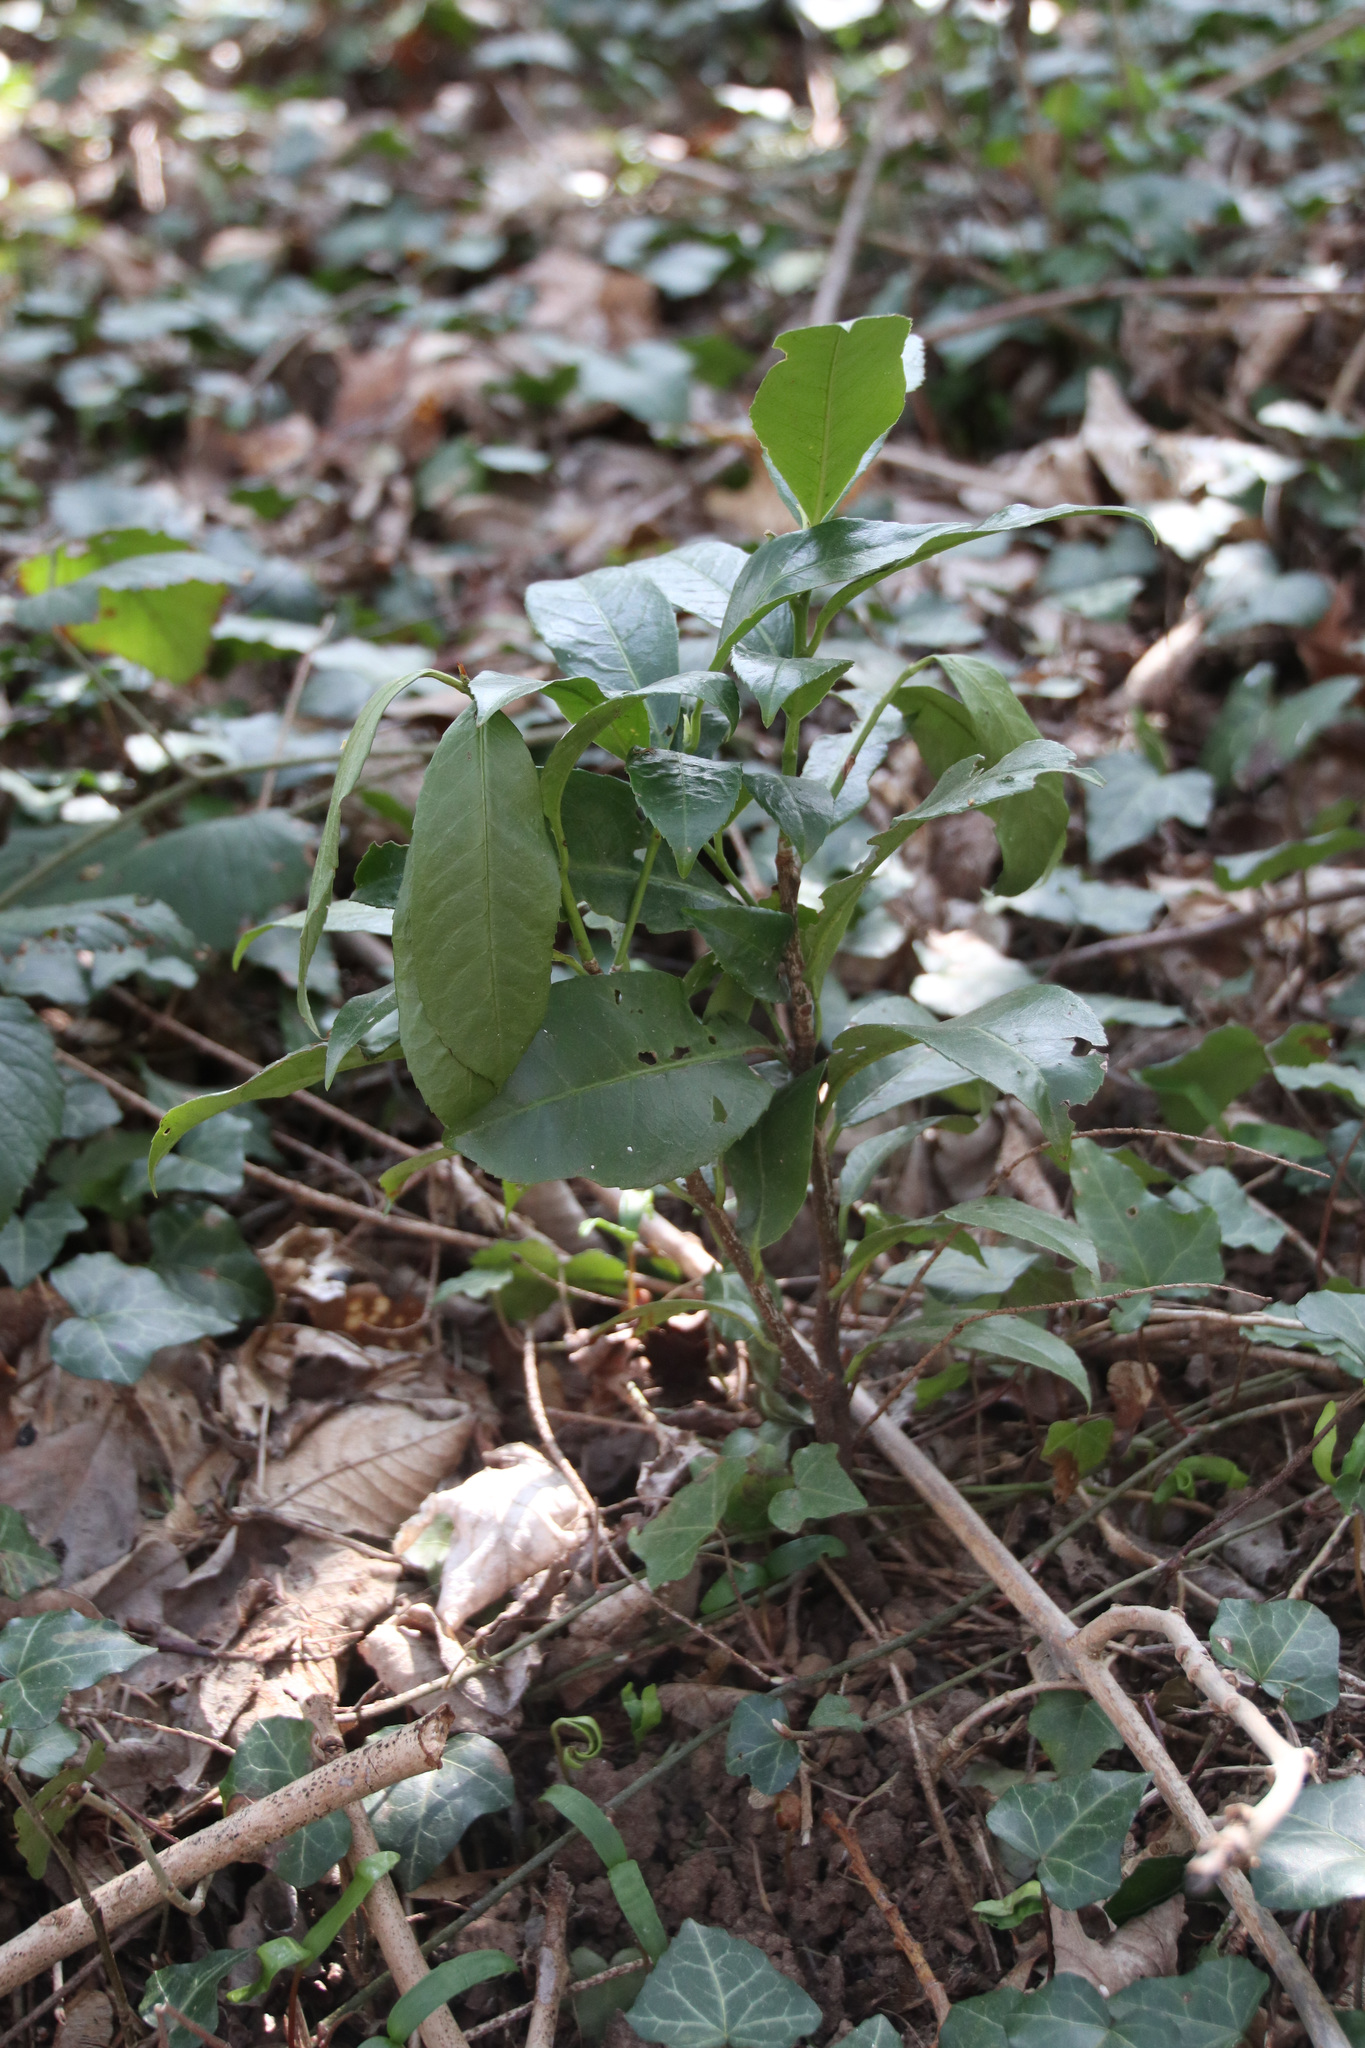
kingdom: Plantae
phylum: Tracheophyta
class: Magnoliopsida
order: Rosales
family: Rosaceae
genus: Prunus
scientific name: Prunus laurocerasus
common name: Cherry laurel
